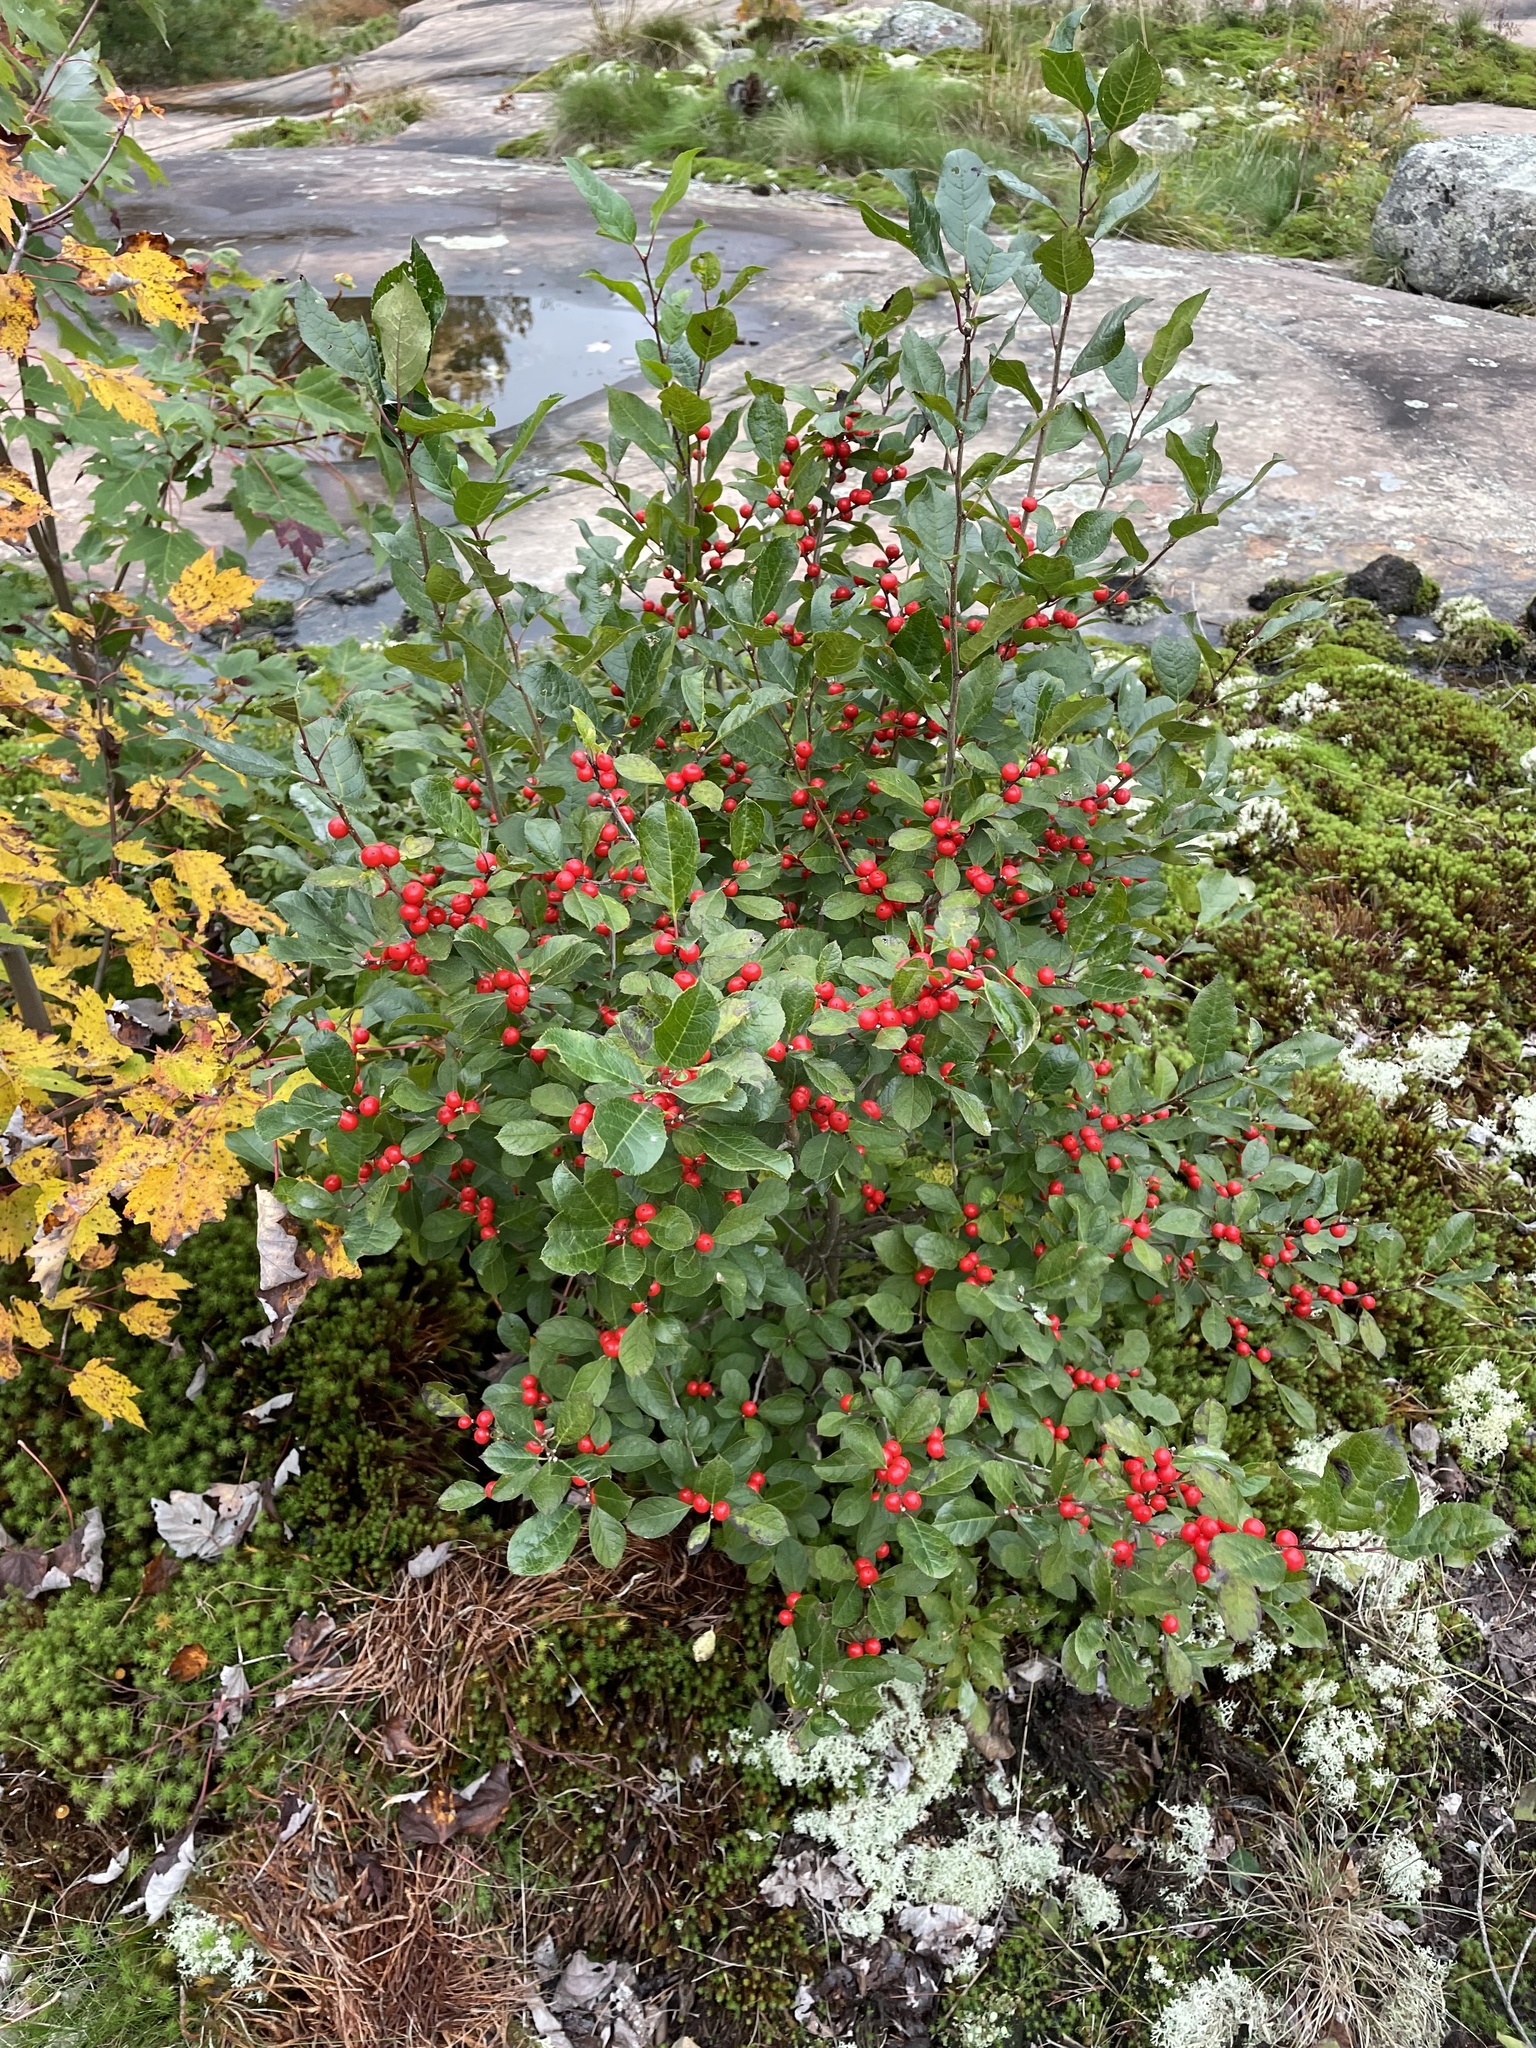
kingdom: Plantae
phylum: Tracheophyta
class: Magnoliopsida
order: Aquifoliales
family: Aquifoliaceae
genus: Ilex
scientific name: Ilex verticillata
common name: Virginia winterberry
